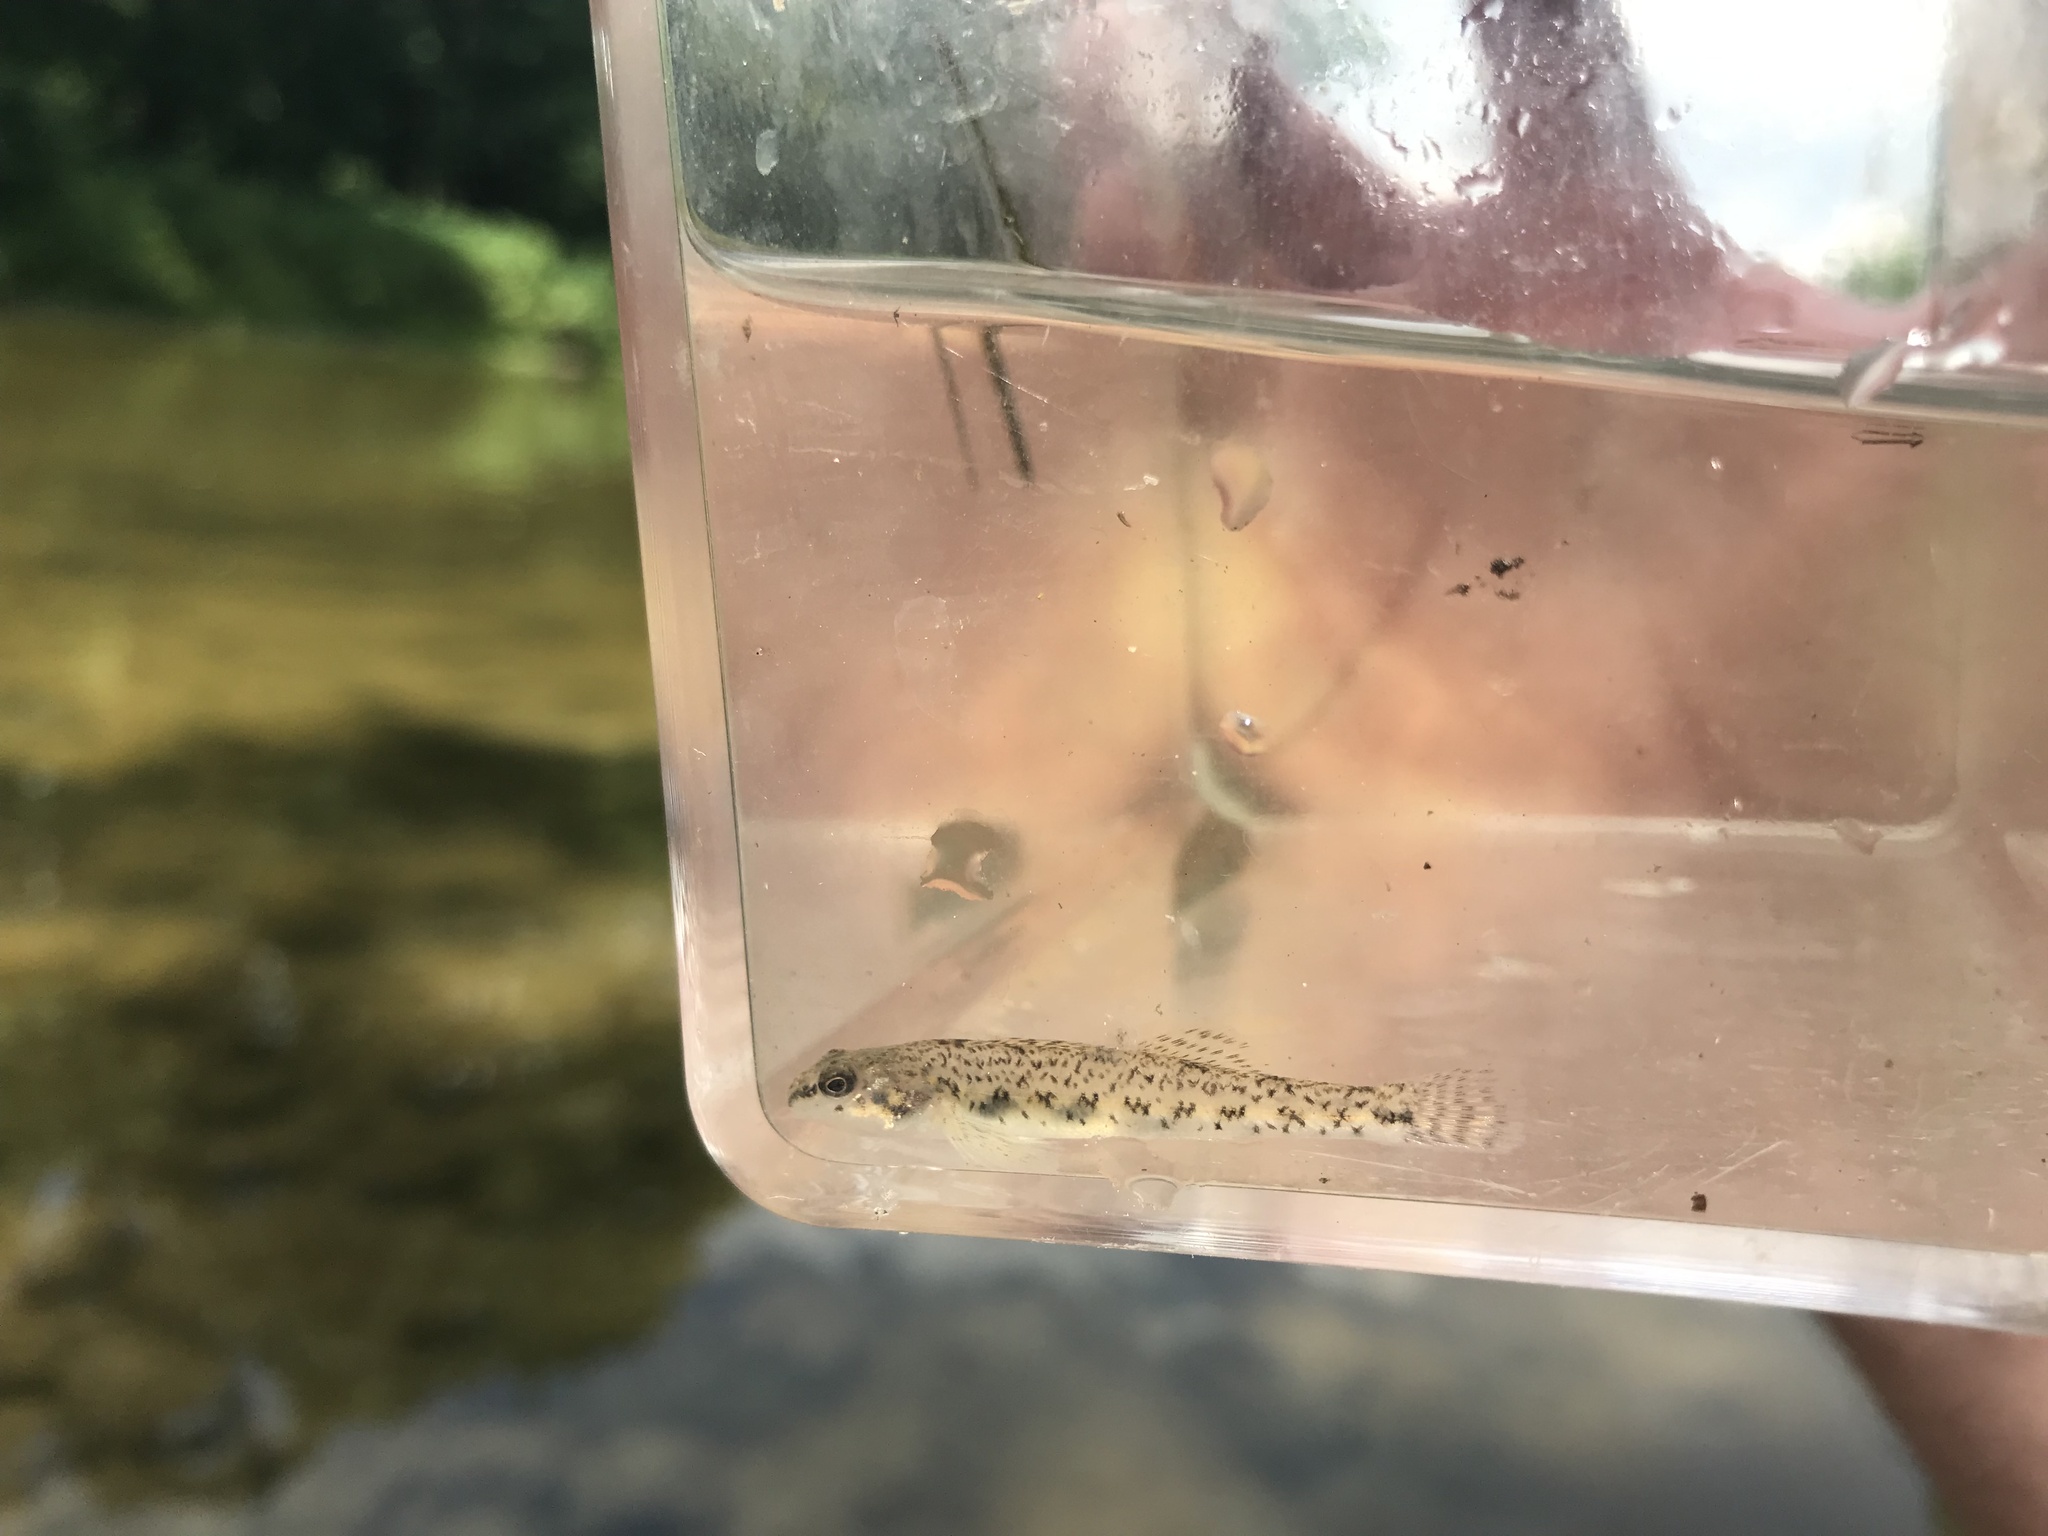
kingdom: Animalia
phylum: Chordata
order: Perciformes
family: Percidae
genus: Etheostoma
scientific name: Etheostoma nigrum
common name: Johnny darter
